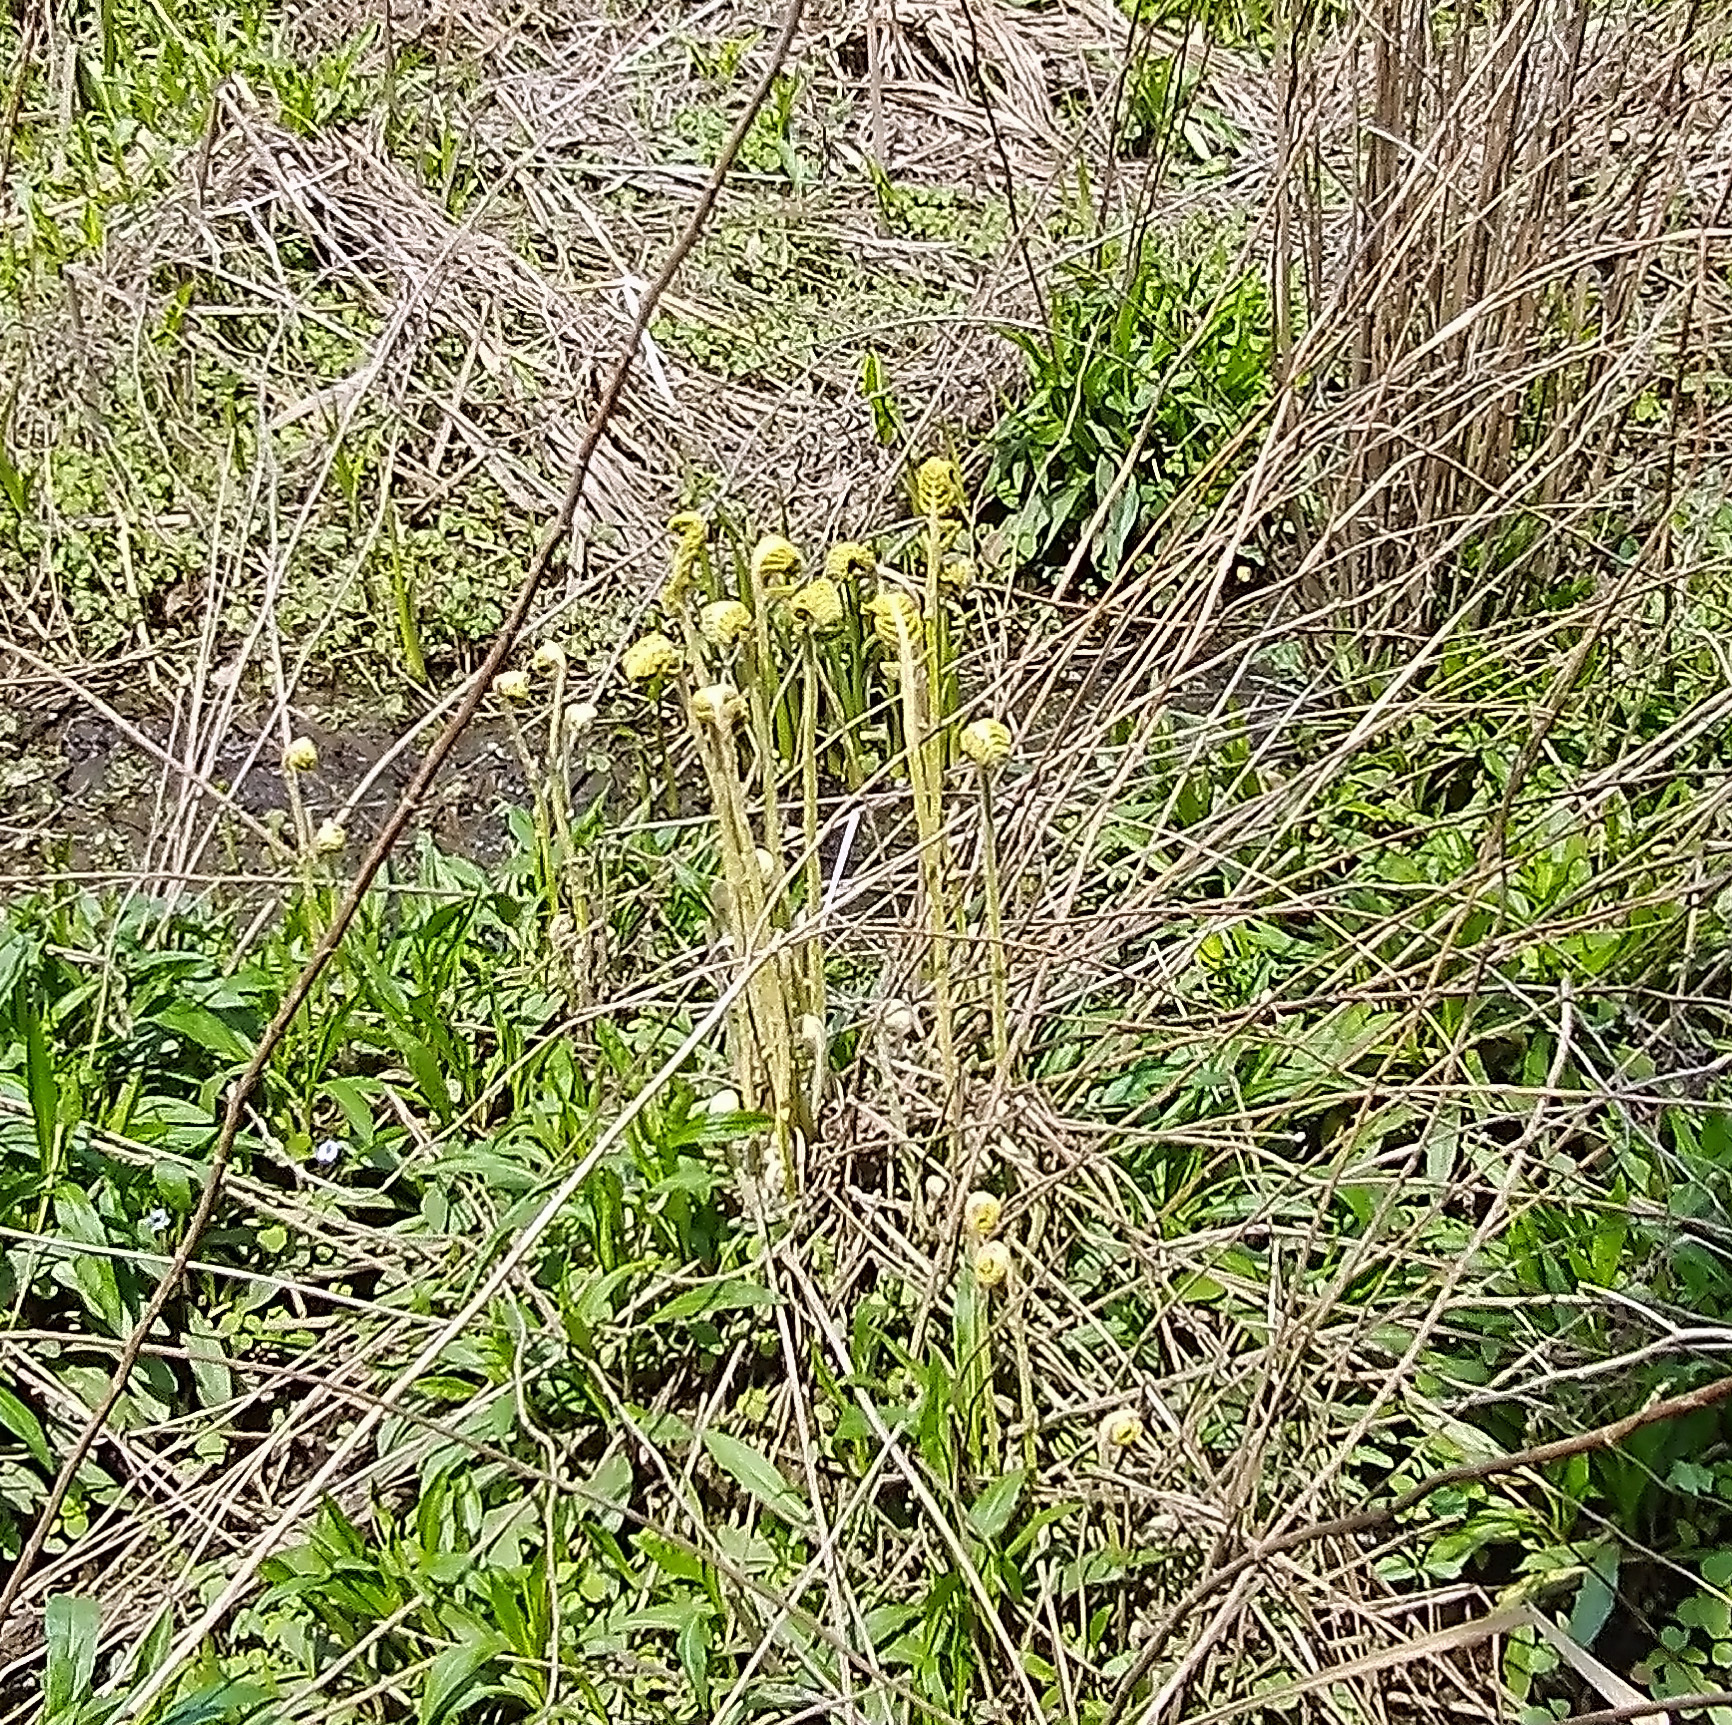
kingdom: Plantae
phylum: Tracheophyta
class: Polypodiopsida
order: Osmundales
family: Osmundaceae
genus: Osmundastrum
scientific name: Osmundastrum cinnamomeum
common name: Cinnamon fern
